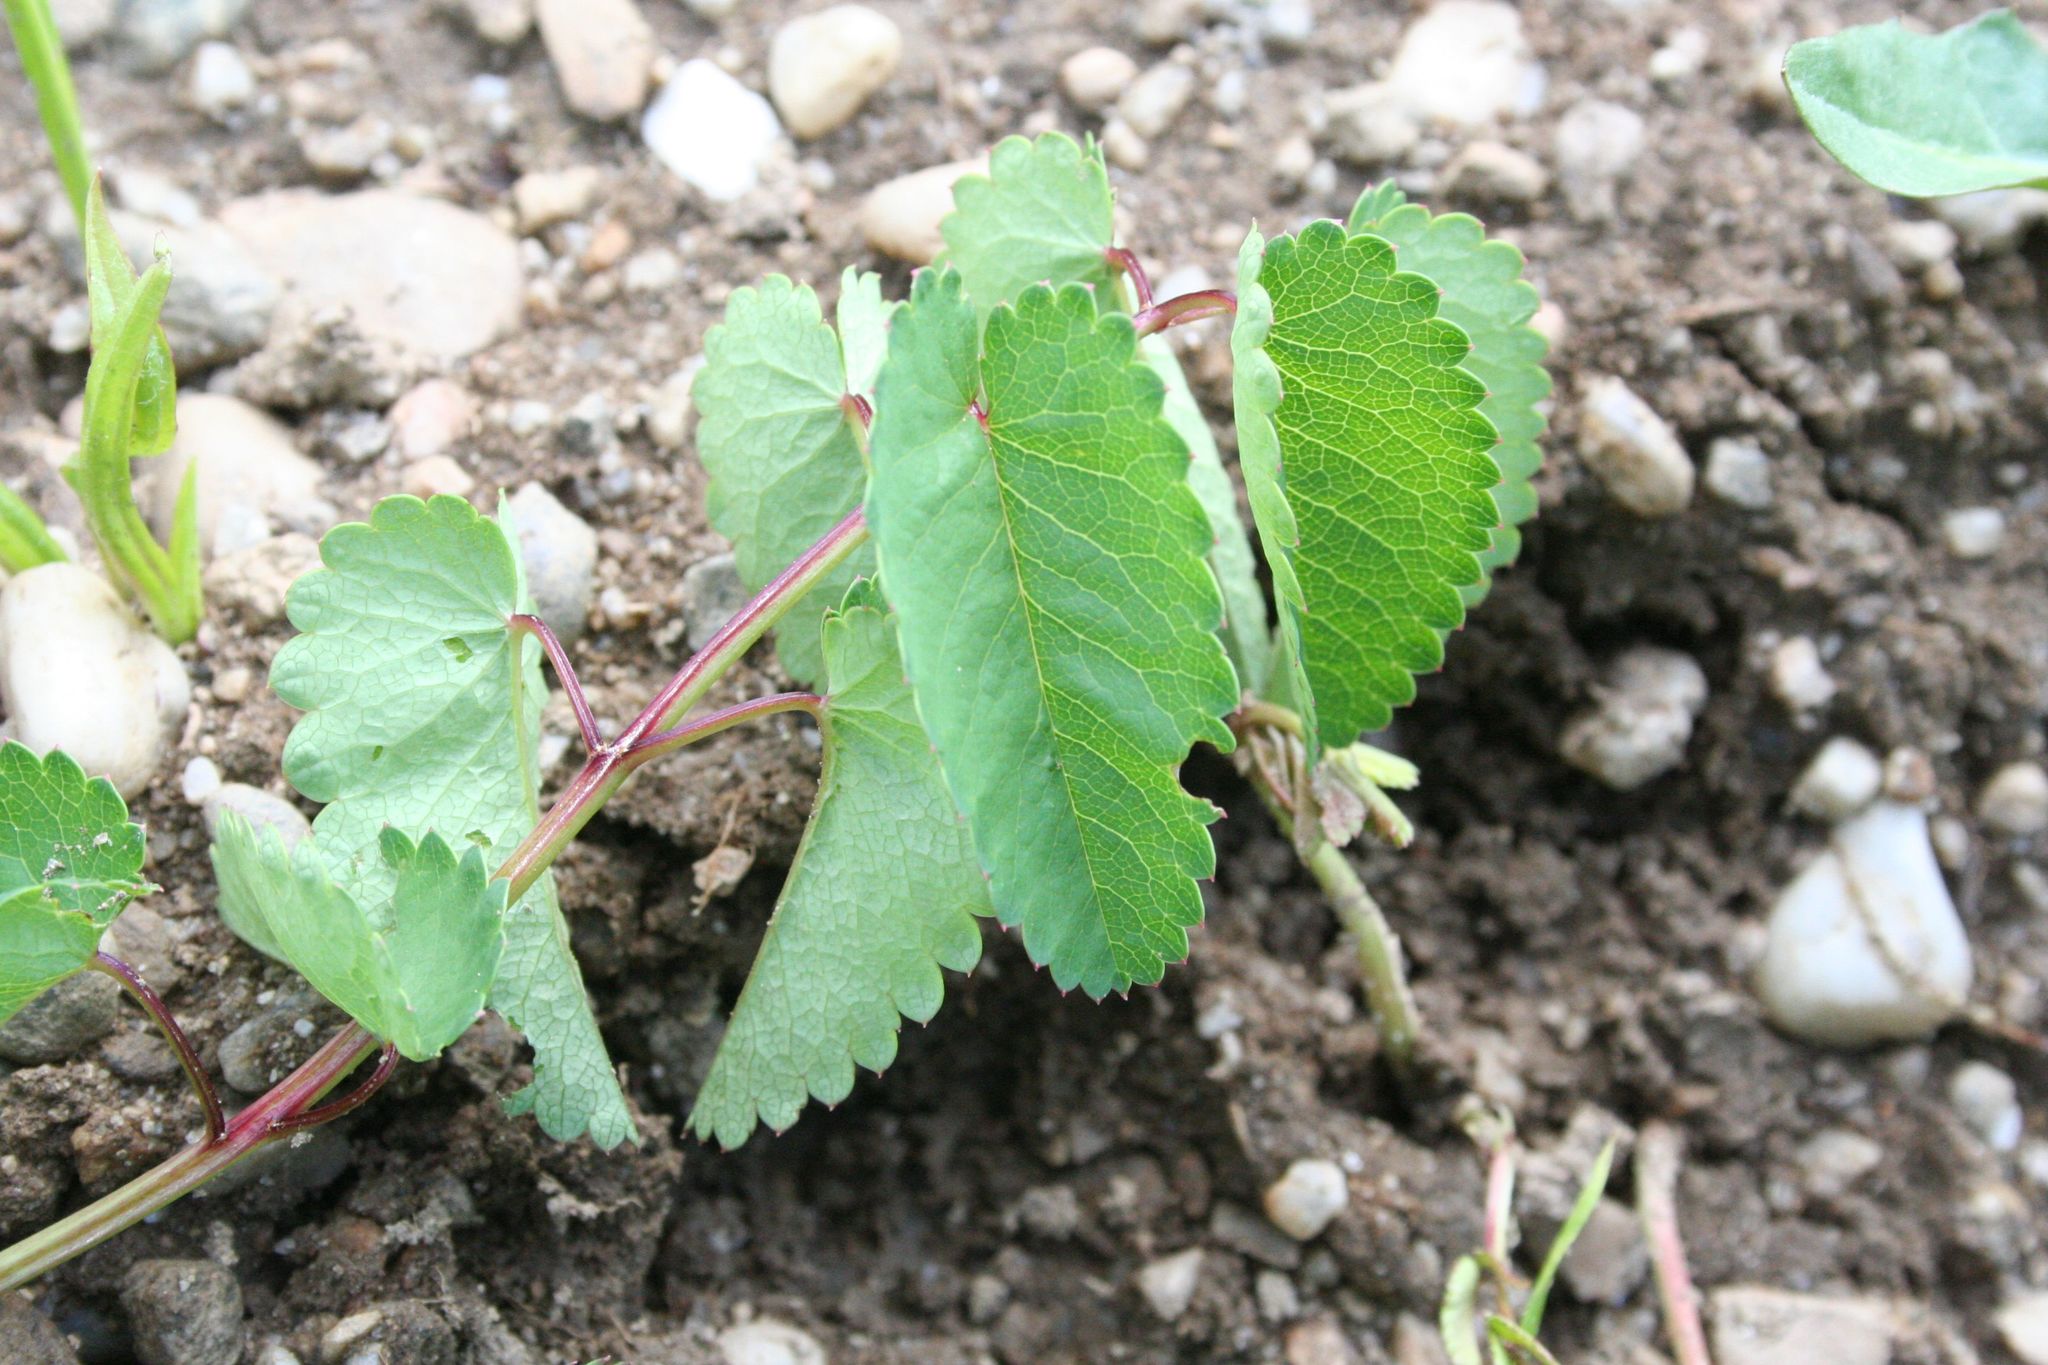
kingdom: Plantae
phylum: Tracheophyta
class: Magnoliopsida
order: Rosales
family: Rosaceae
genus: Sanguisorba
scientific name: Sanguisorba officinalis
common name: Great burnet
